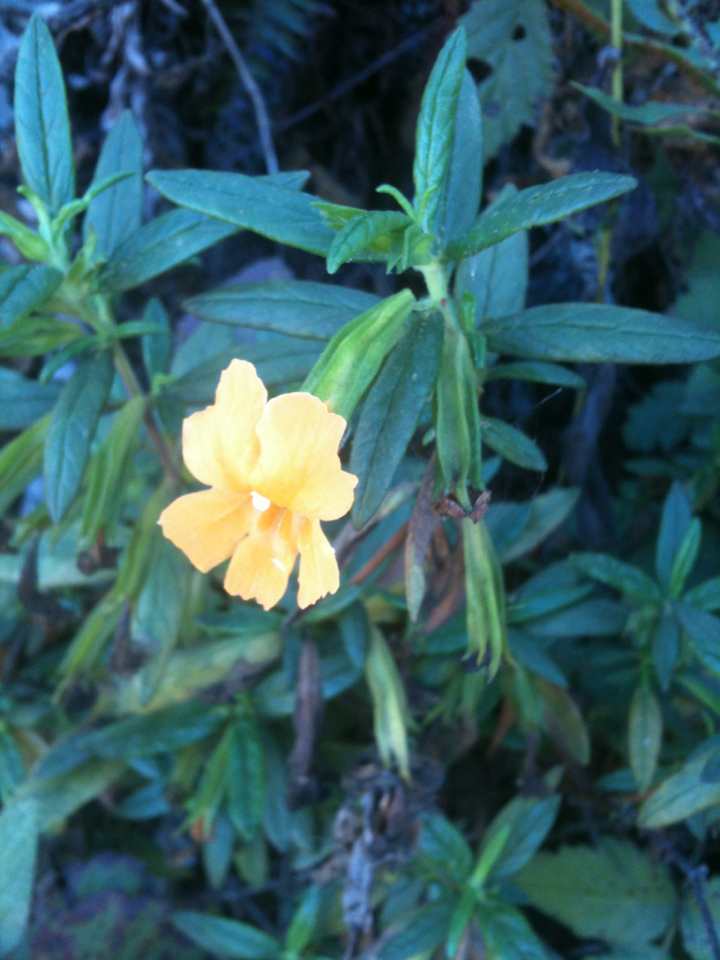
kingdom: Plantae
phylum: Tracheophyta
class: Magnoliopsida
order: Lamiales
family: Phrymaceae
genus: Diplacus
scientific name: Diplacus aurantiacus
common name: Bush monkey-flower
